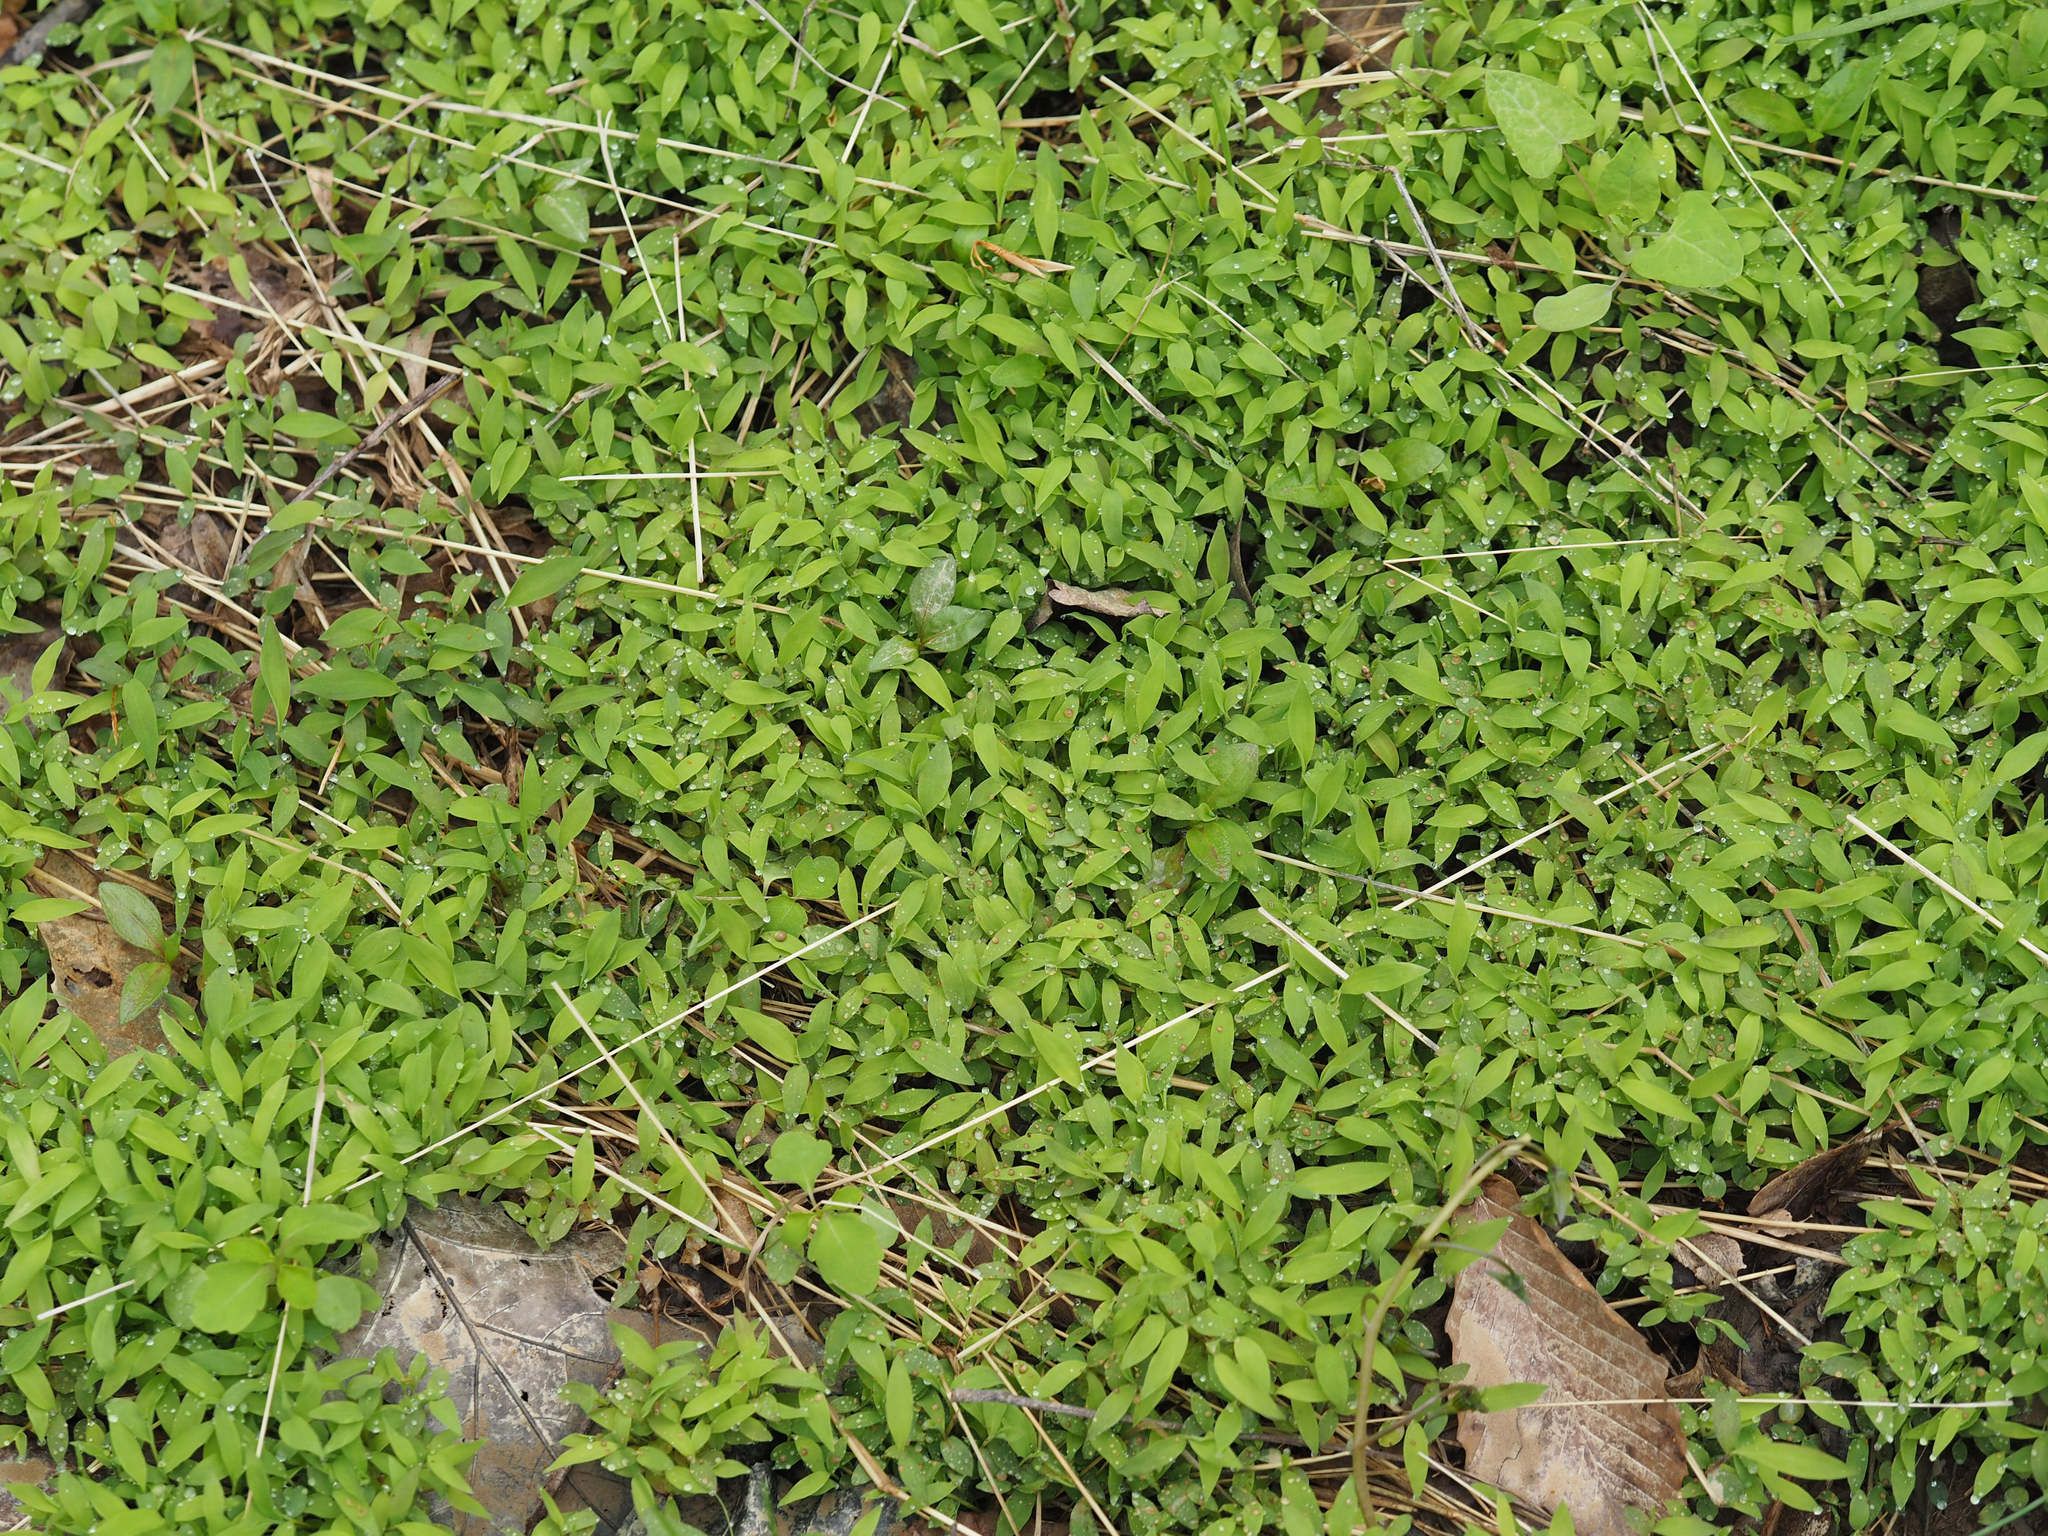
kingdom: Plantae
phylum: Tracheophyta
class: Liliopsida
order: Poales
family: Poaceae
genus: Microstegium
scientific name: Microstegium vimineum
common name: Japanese stiltgrass
